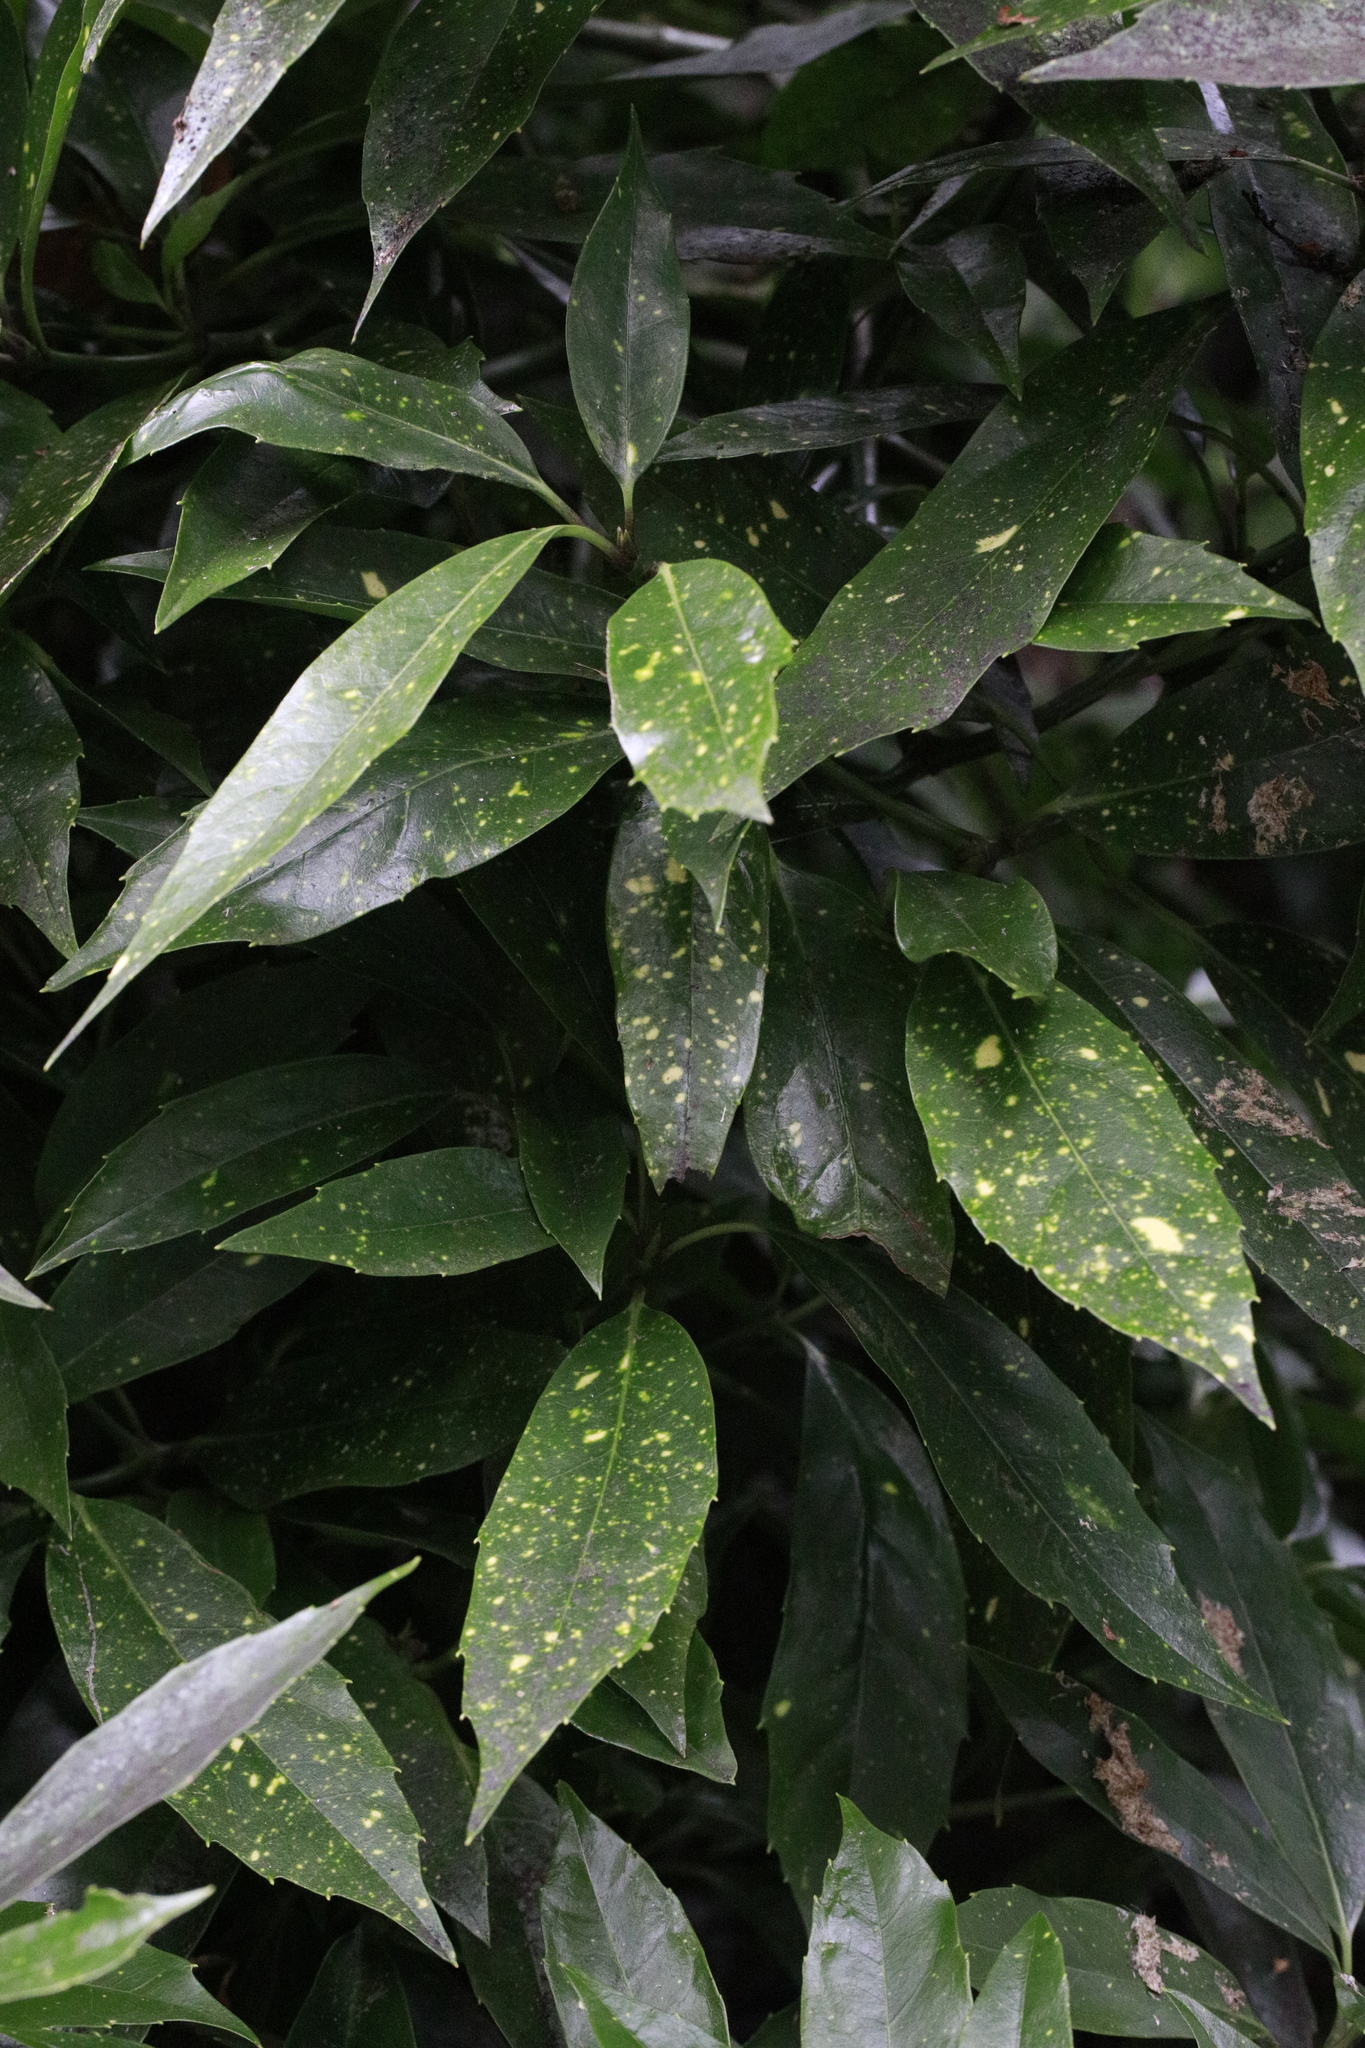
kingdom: Plantae
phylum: Tracheophyta
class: Magnoliopsida
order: Garryales
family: Garryaceae
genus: Aucuba
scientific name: Aucuba japonica
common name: Spotted-laurel
